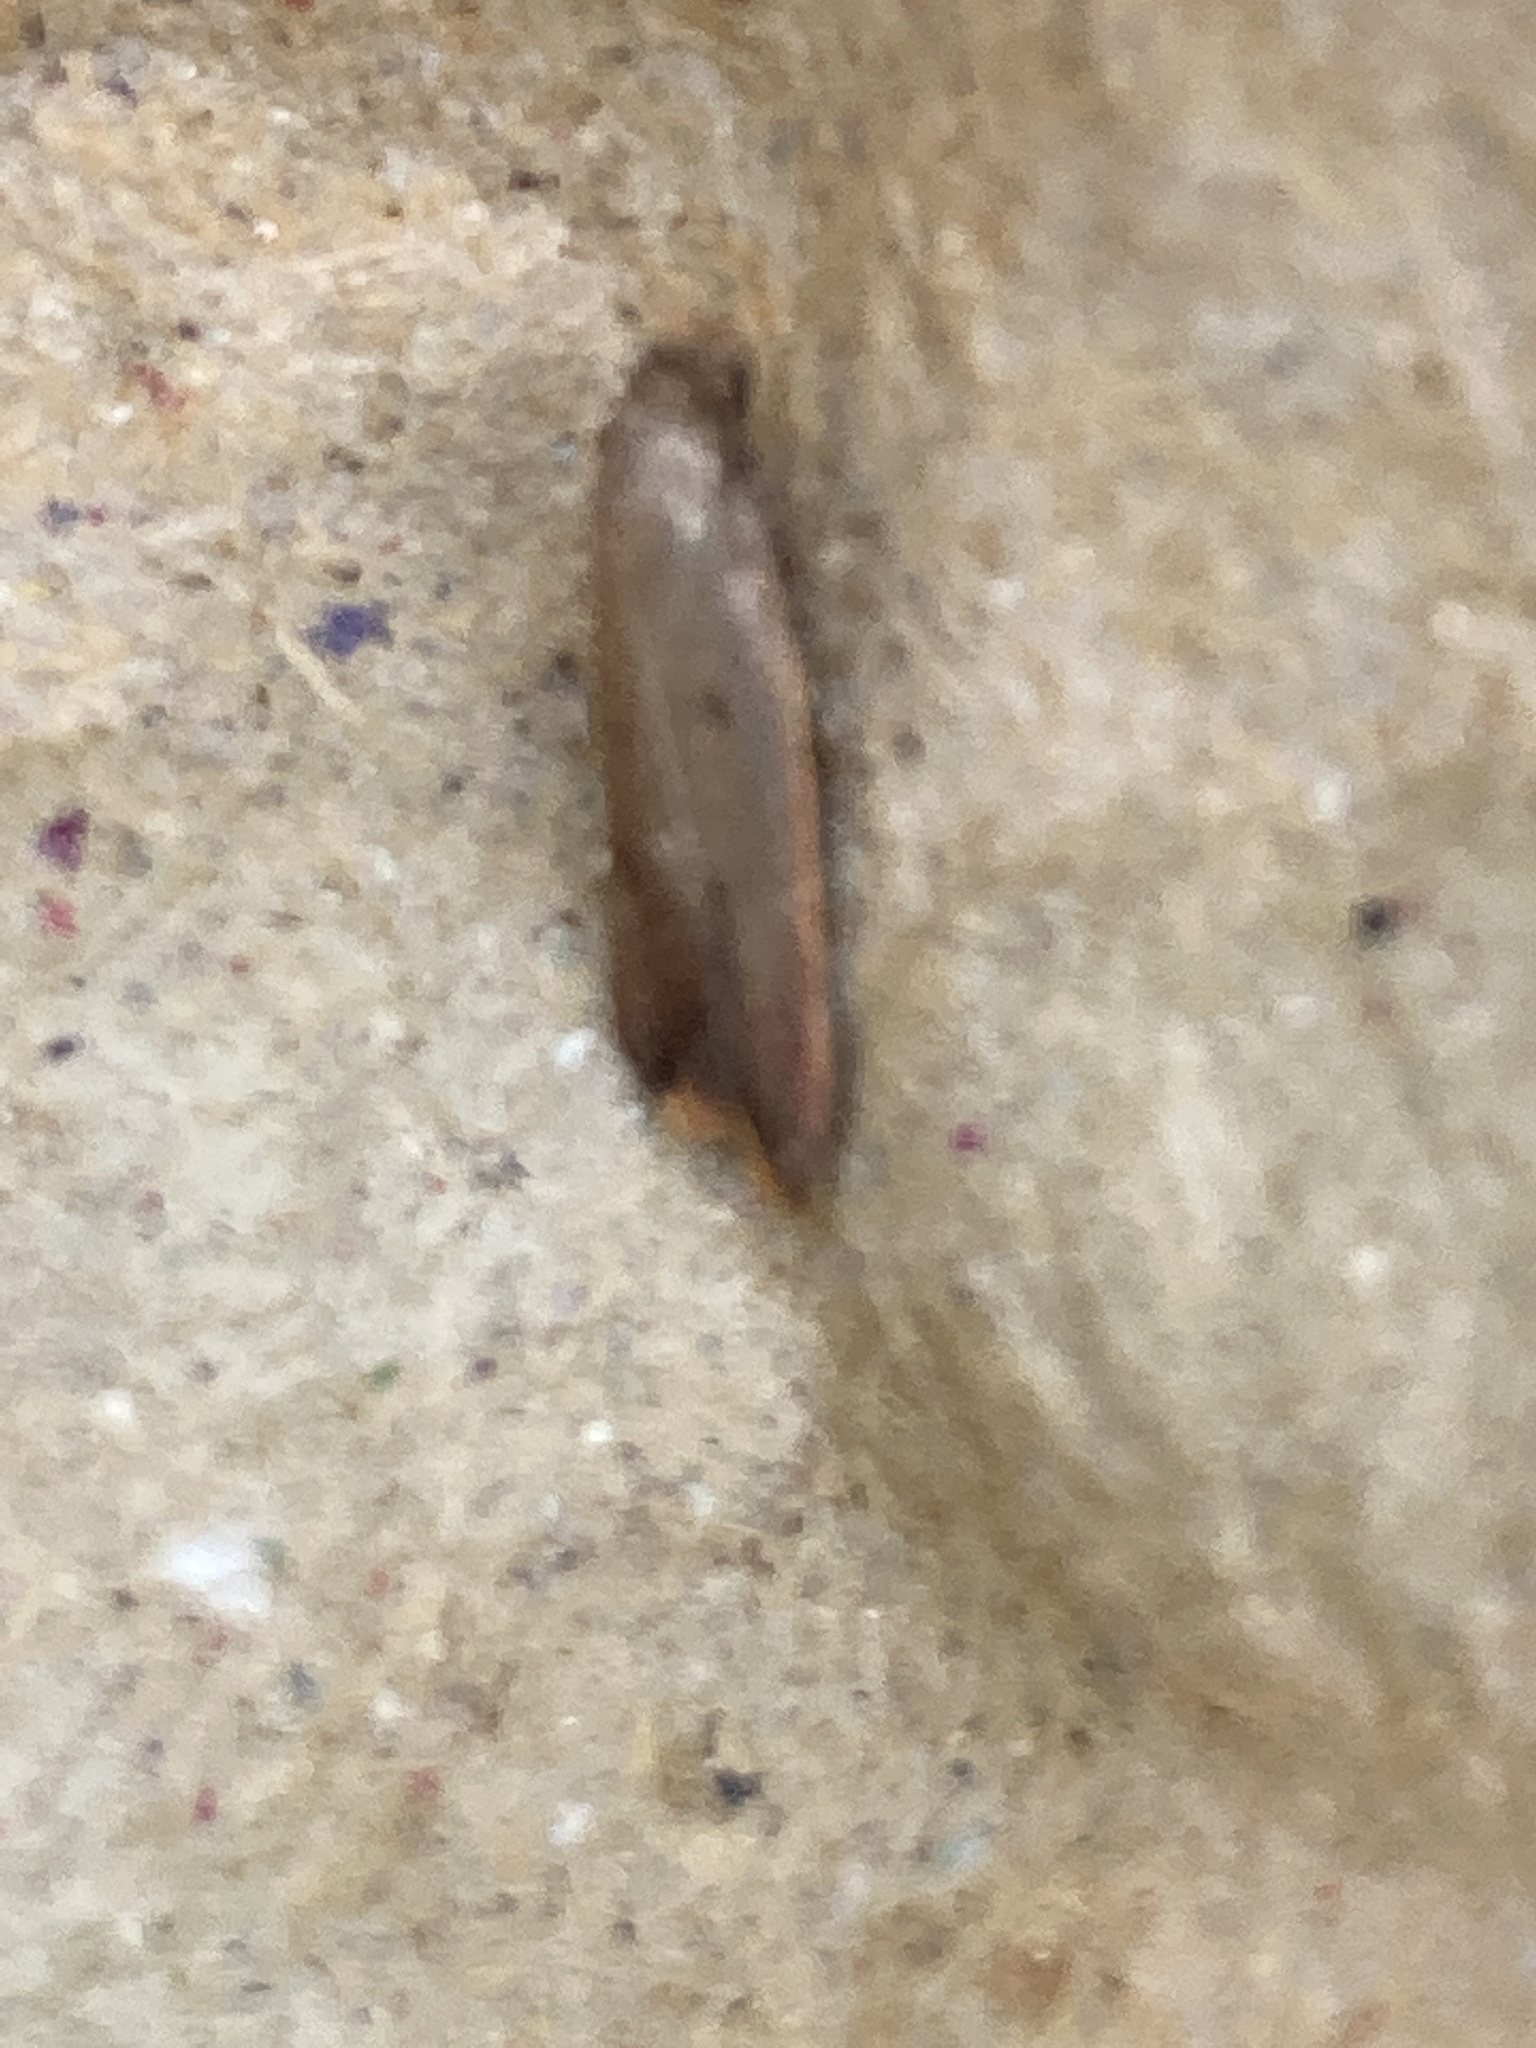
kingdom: Animalia
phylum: Arthropoda
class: Insecta
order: Lepidoptera
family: Oecophoridae
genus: Tachystola
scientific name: Tachystola acroxantha
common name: Ruddy streak
